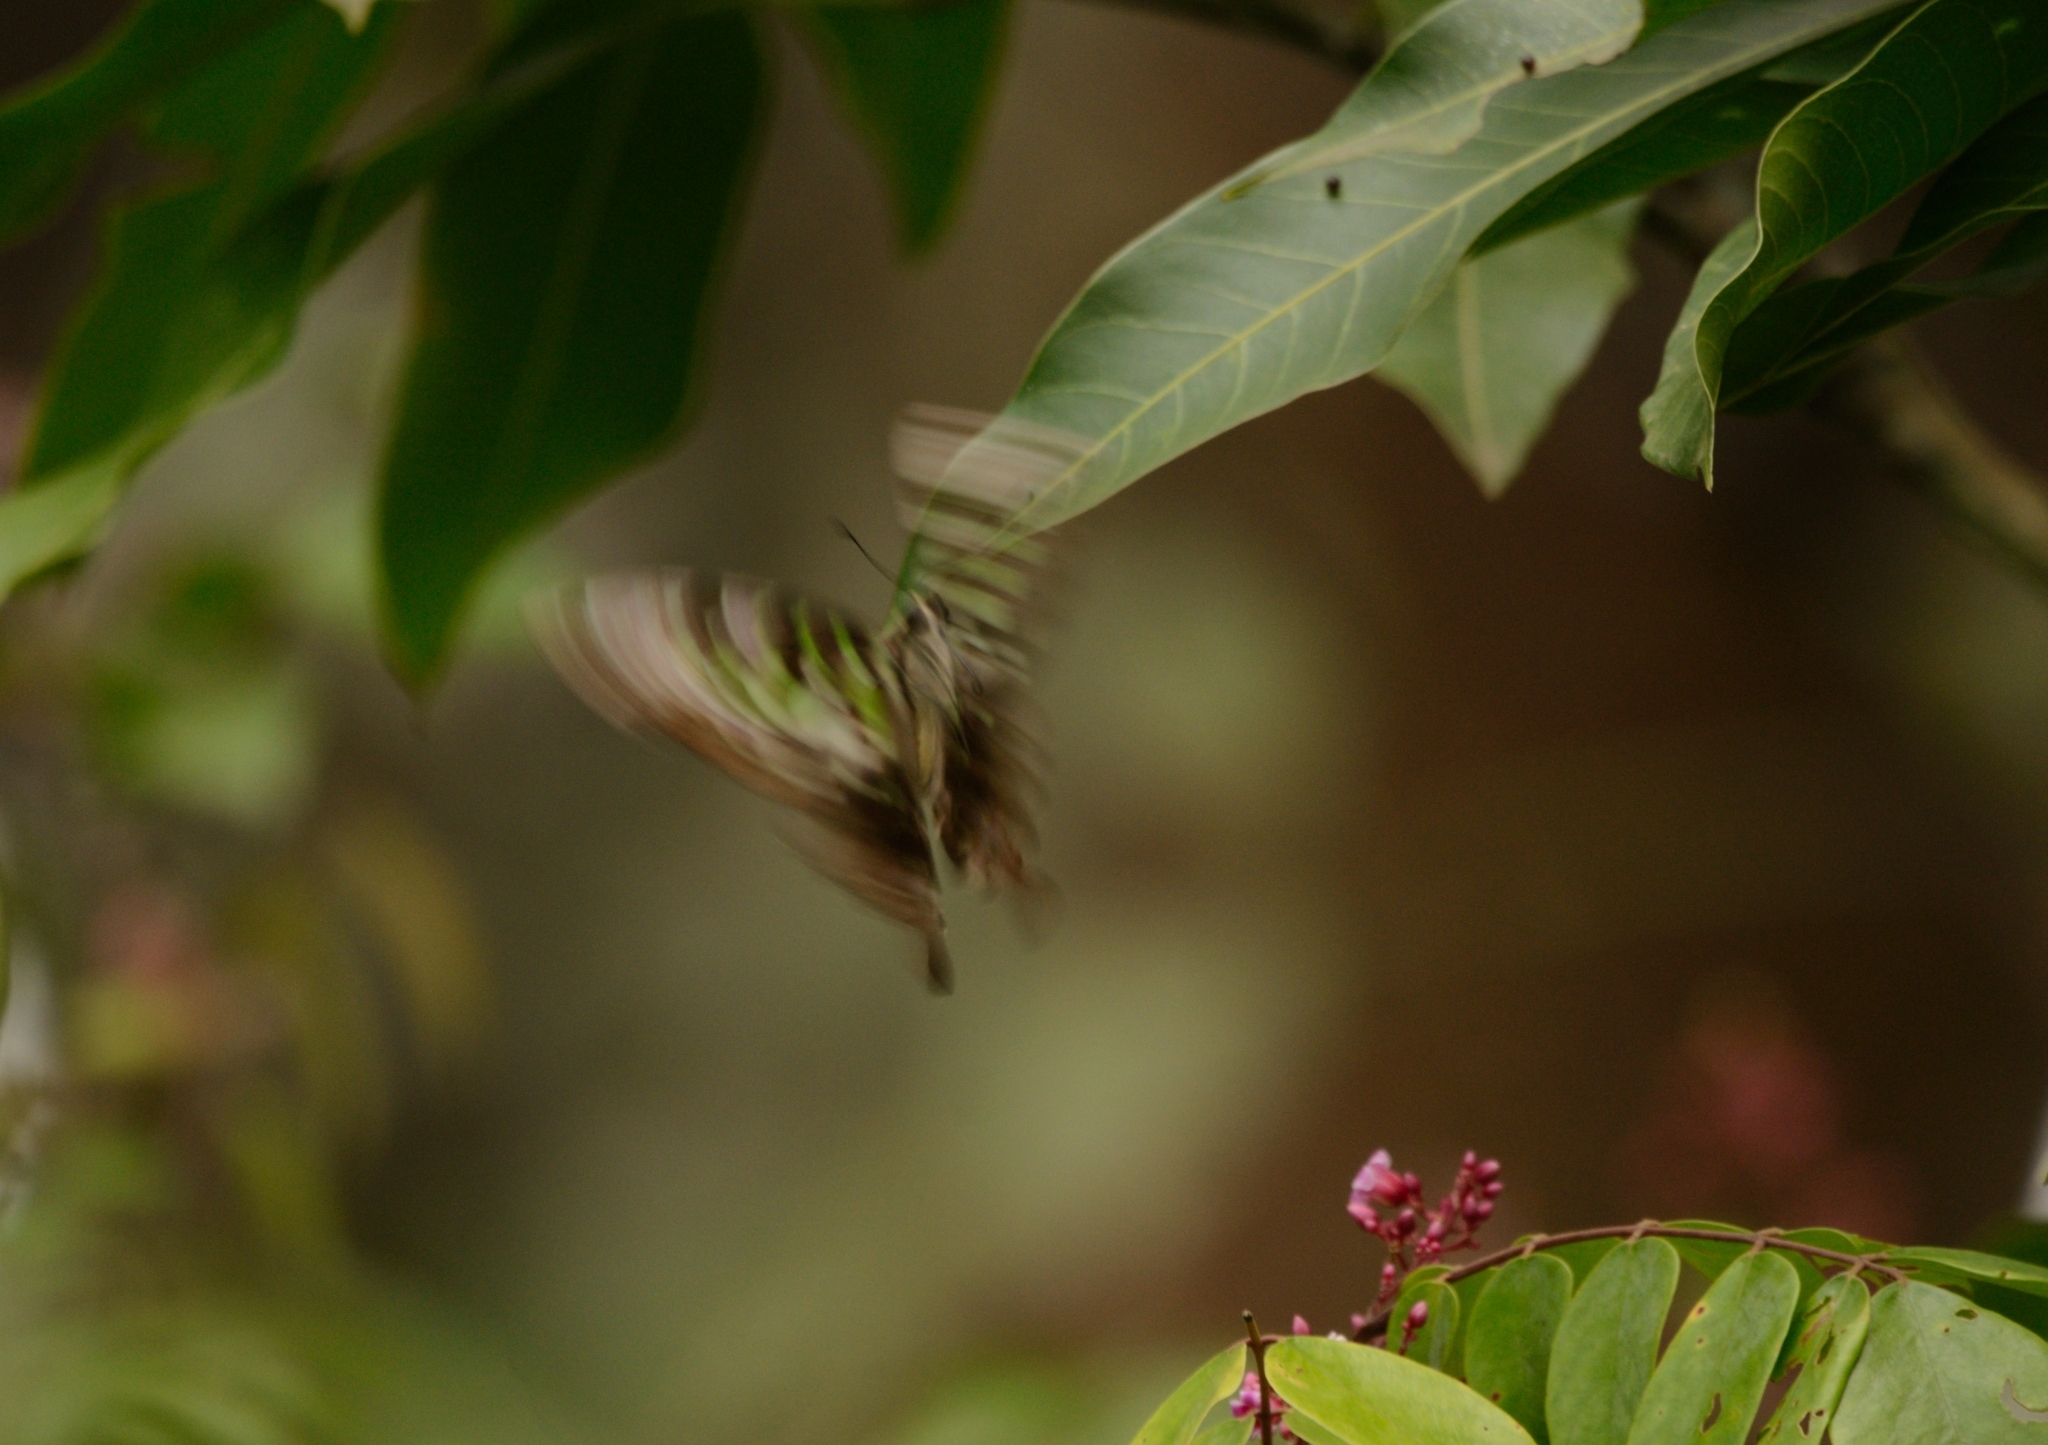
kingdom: Animalia
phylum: Arthropoda
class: Insecta
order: Lepidoptera
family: Papilionidae
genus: Graphium
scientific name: Graphium agamemnon
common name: Tailed jay
